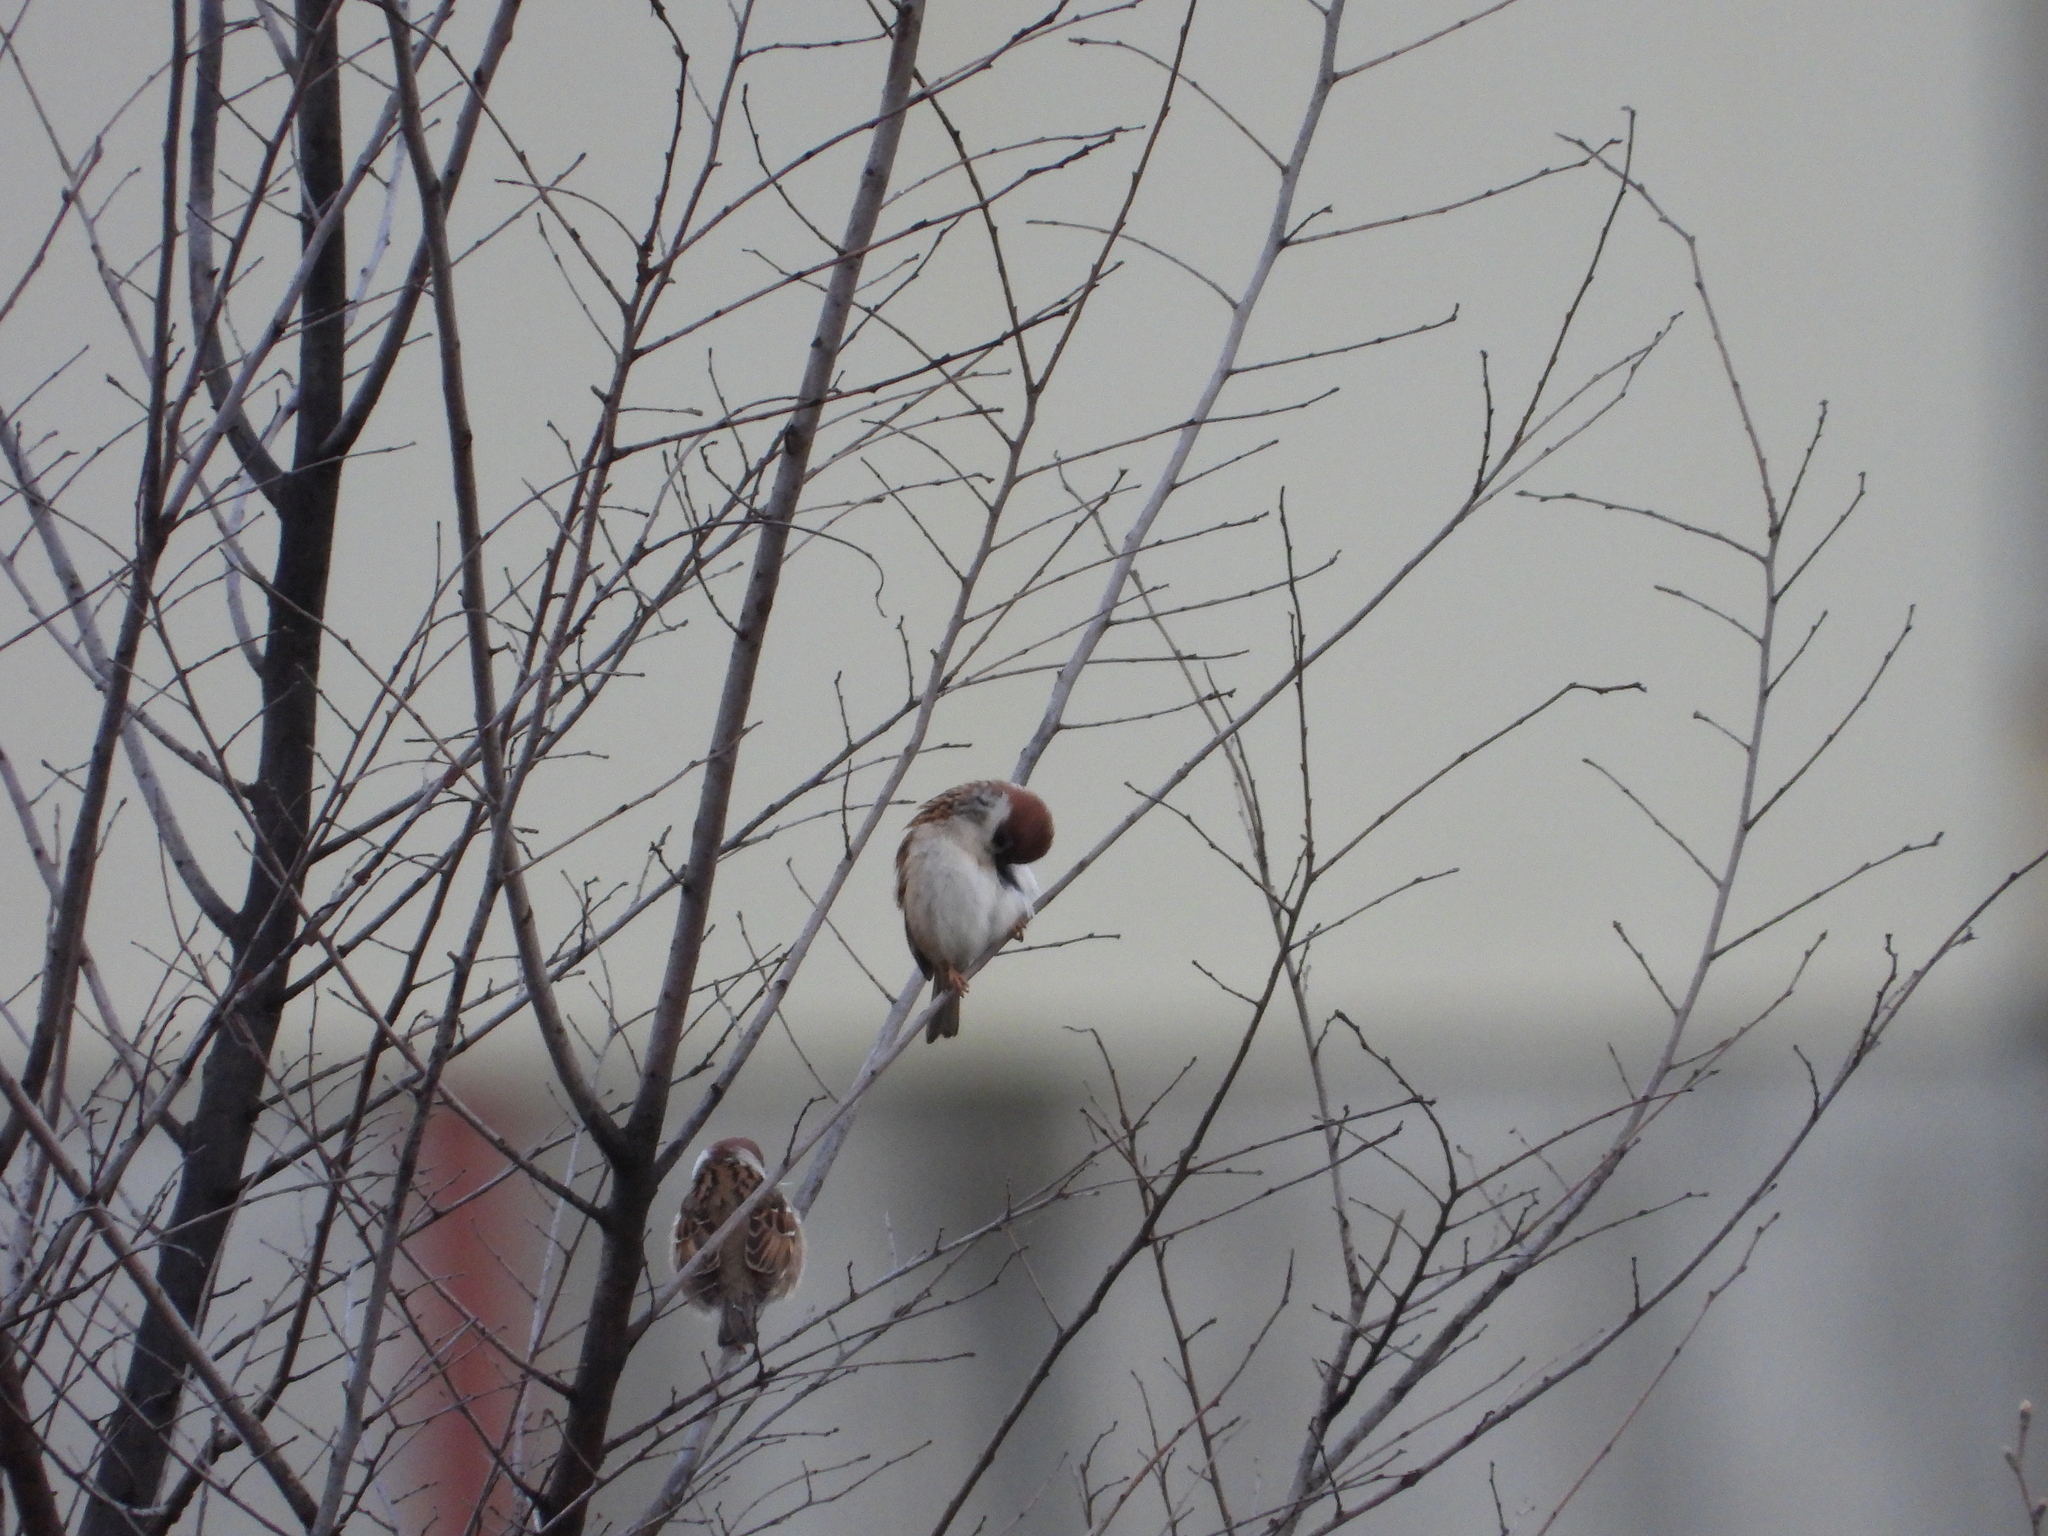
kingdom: Animalia
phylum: Chordata
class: Aves
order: Passeriformes
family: Passeridae
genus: Passer
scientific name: Passer montanus
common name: Eurasian tree sparrow
